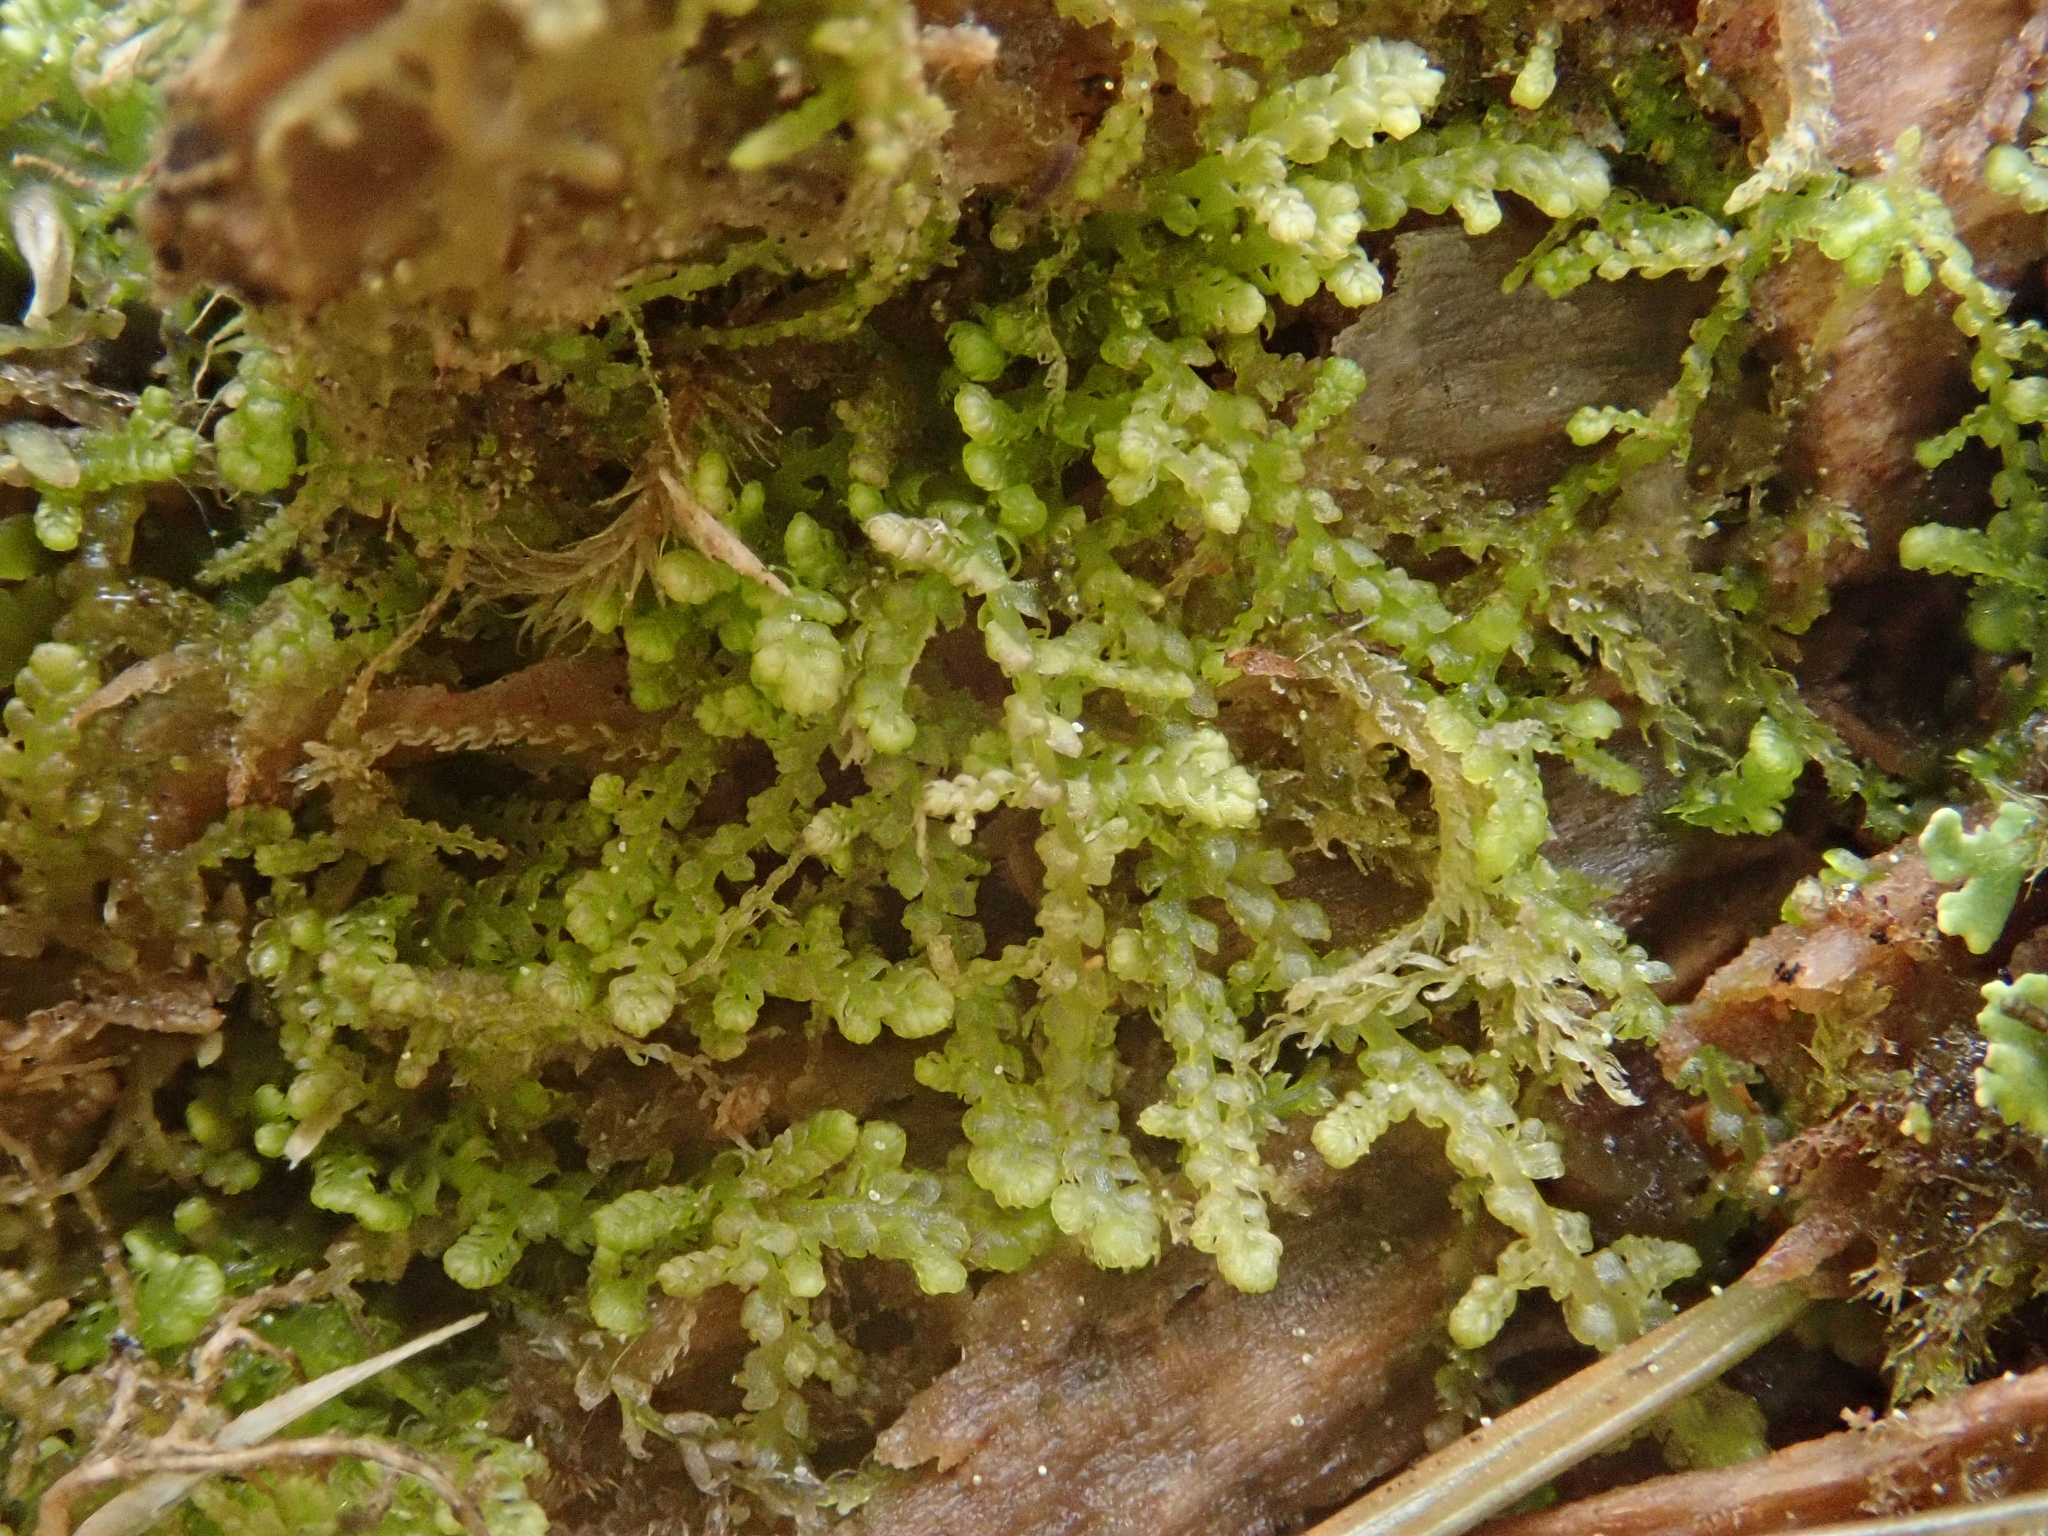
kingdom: Plantae
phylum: Marchantiophyta
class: Jungermanniopsida
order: Jungermanniales
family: Lepidoziaceae
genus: Lepidozia
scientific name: Lepidozia reptans
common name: Creeping fingerwort
